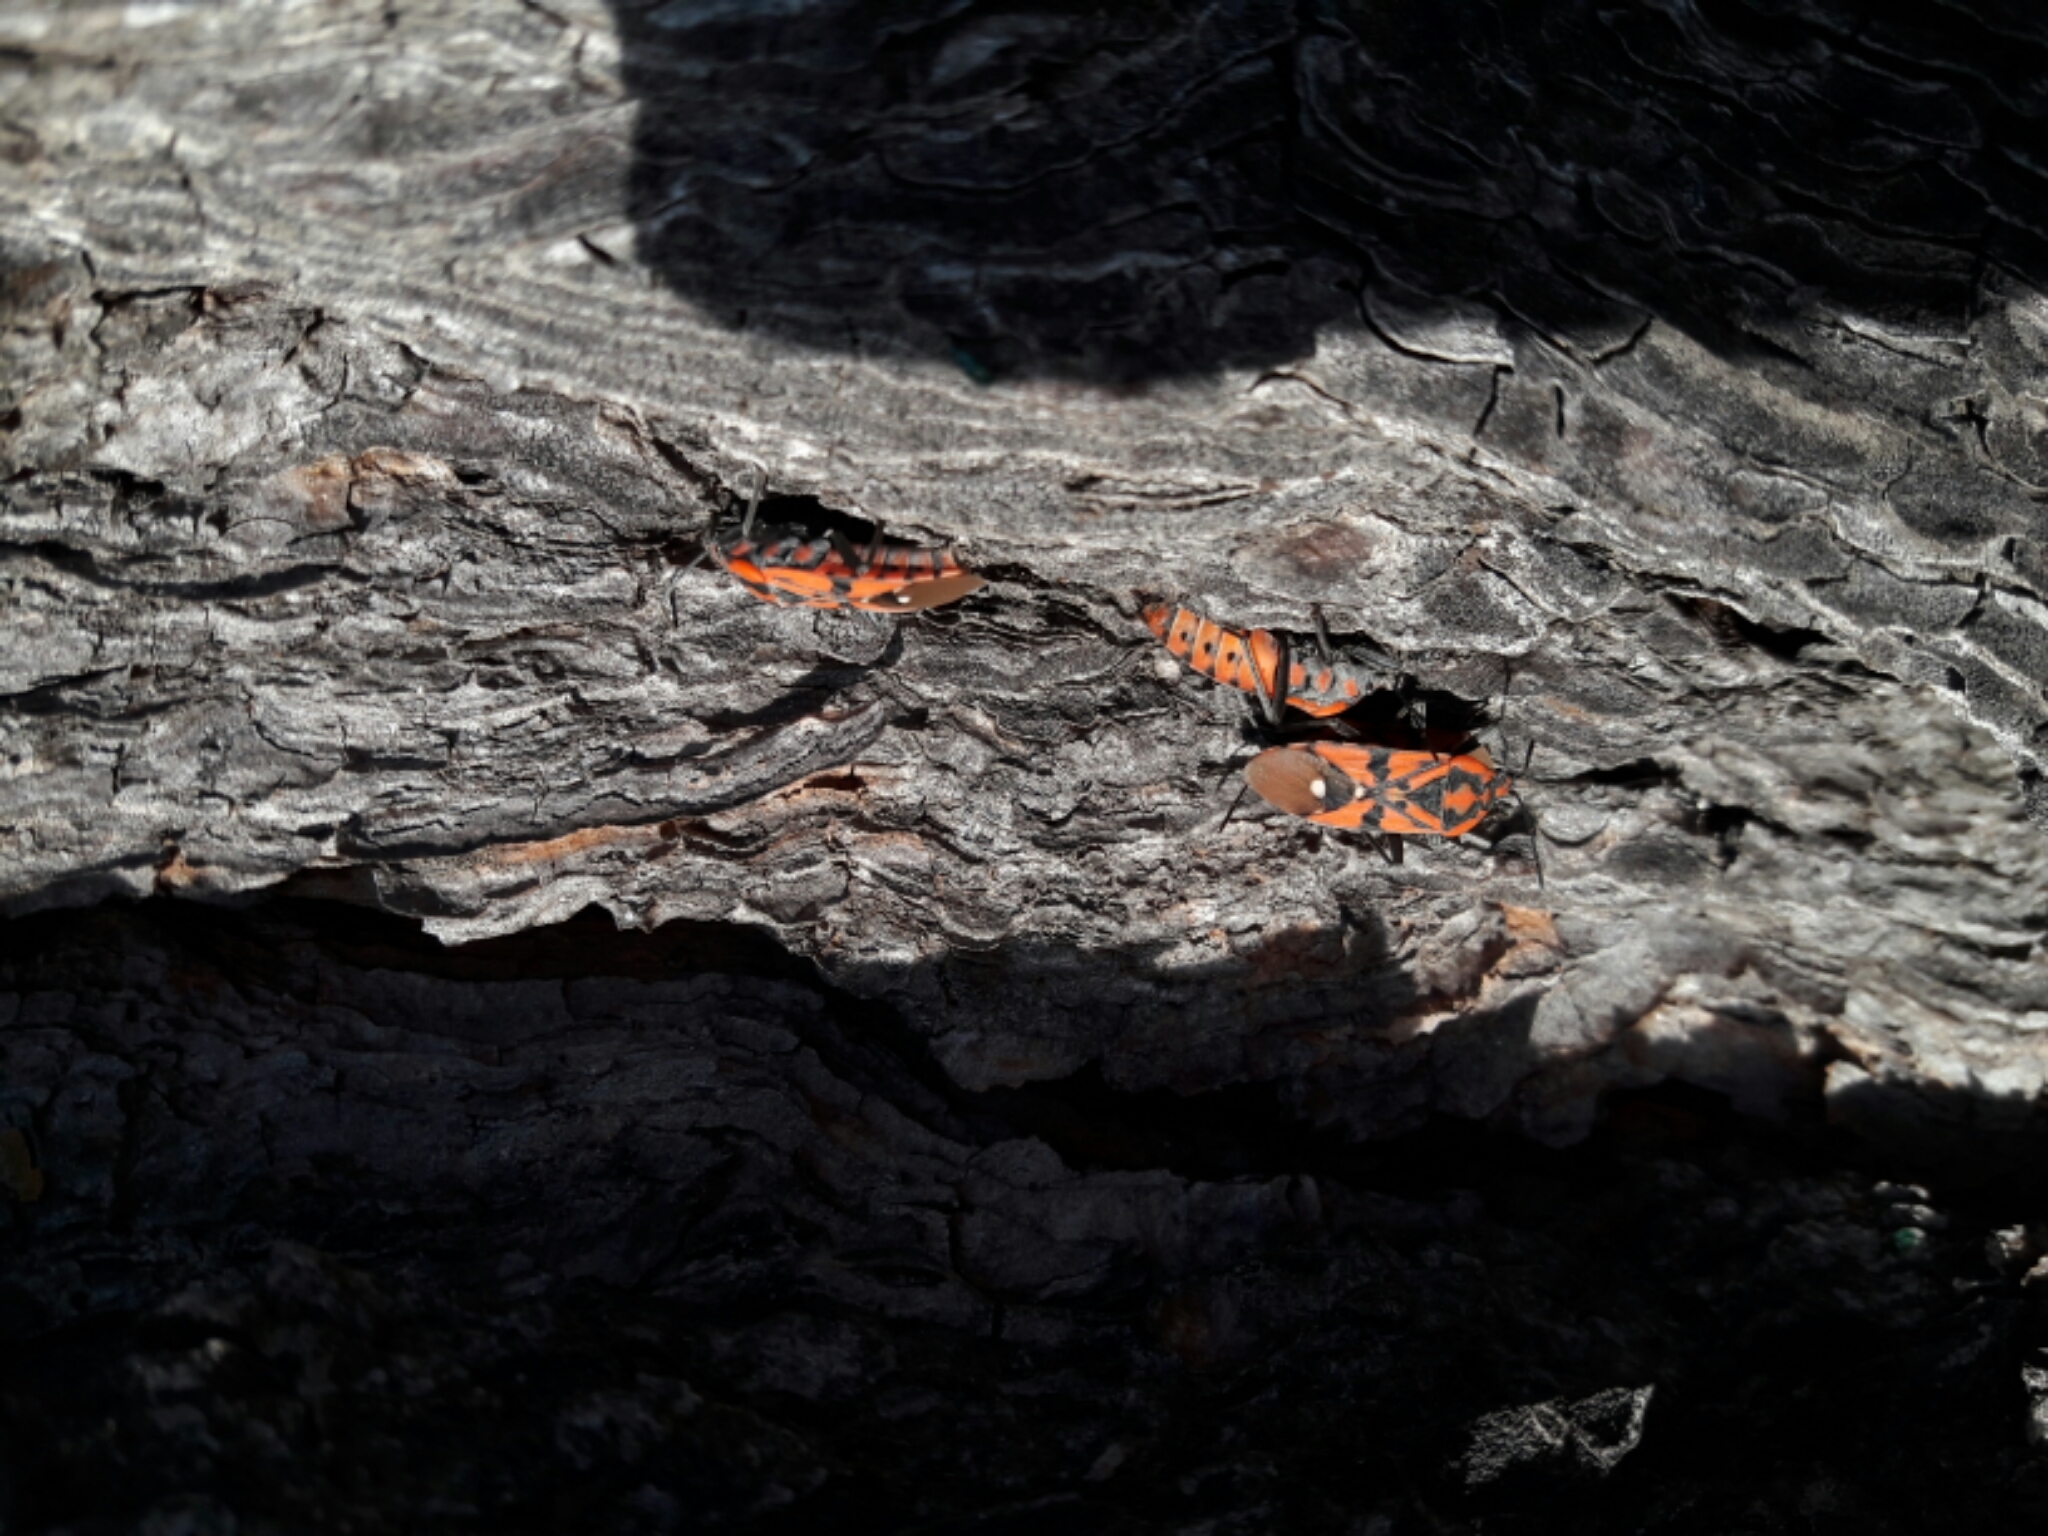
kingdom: Animalia
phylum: Arthropoda
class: Insecta
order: Hemiptera
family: Lygaeidae
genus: Spilostethus
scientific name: Spilostethus pandurus
